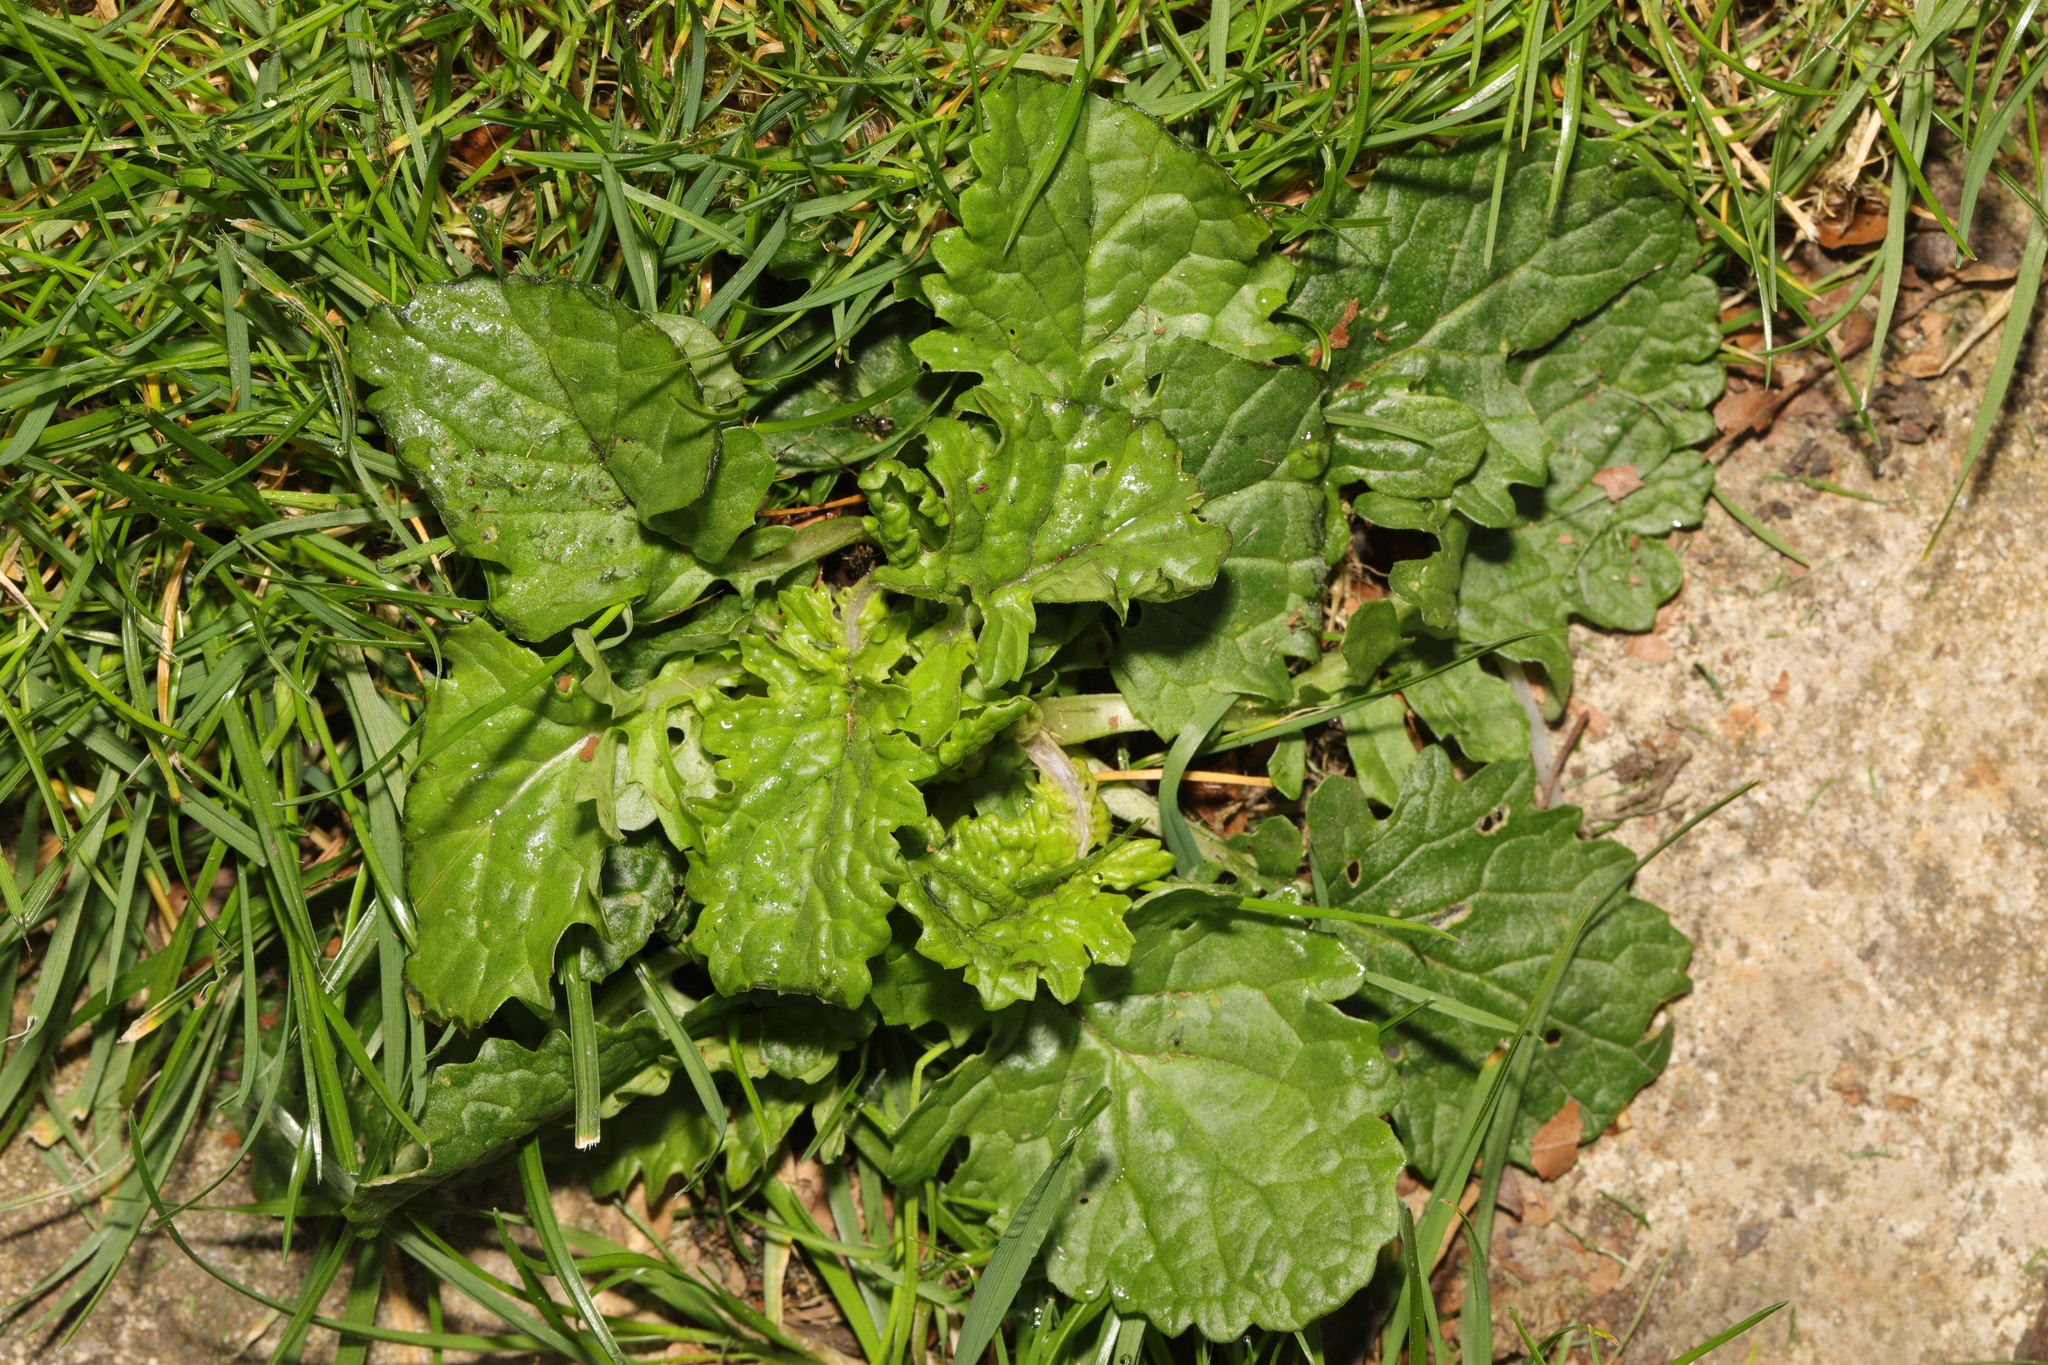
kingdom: Plantae
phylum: Tracheophyta
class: Magnoliopsida
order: Asterales
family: Asteraceae
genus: Jacobaea
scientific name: Jacobaea vulgaris
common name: Stinking willie
